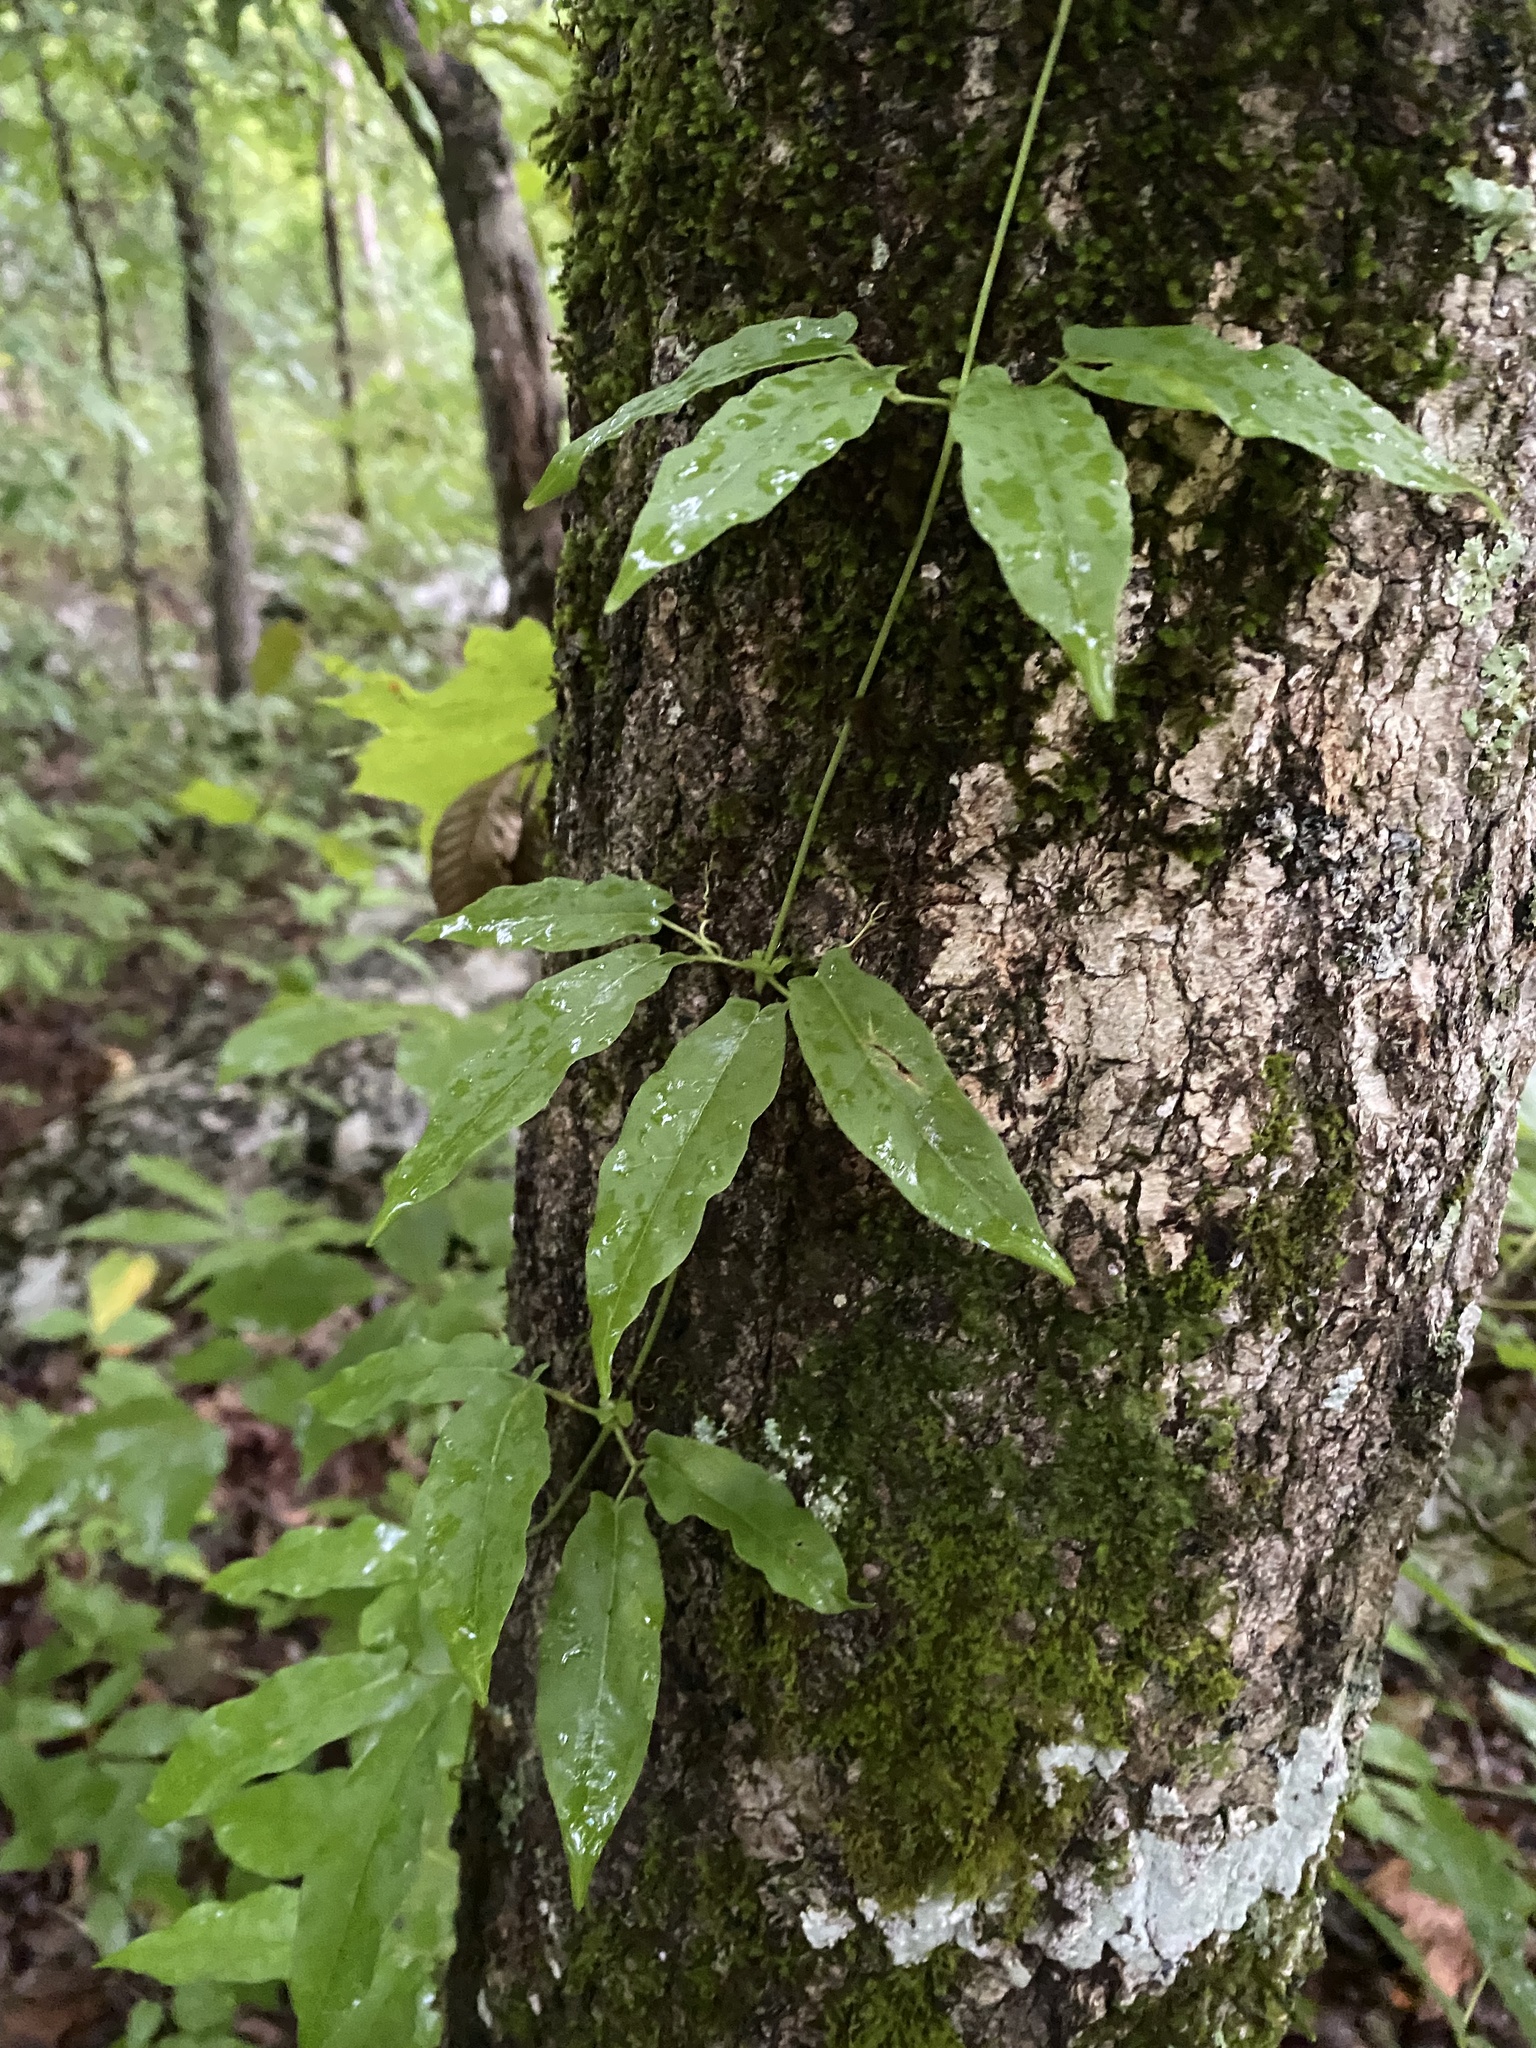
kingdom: Plantae
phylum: Tracheophyta
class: Magnoliopsida
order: Lamiales
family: Bignoniaceae
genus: Bignonia
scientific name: Bignonia capreolata
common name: Crossvine
